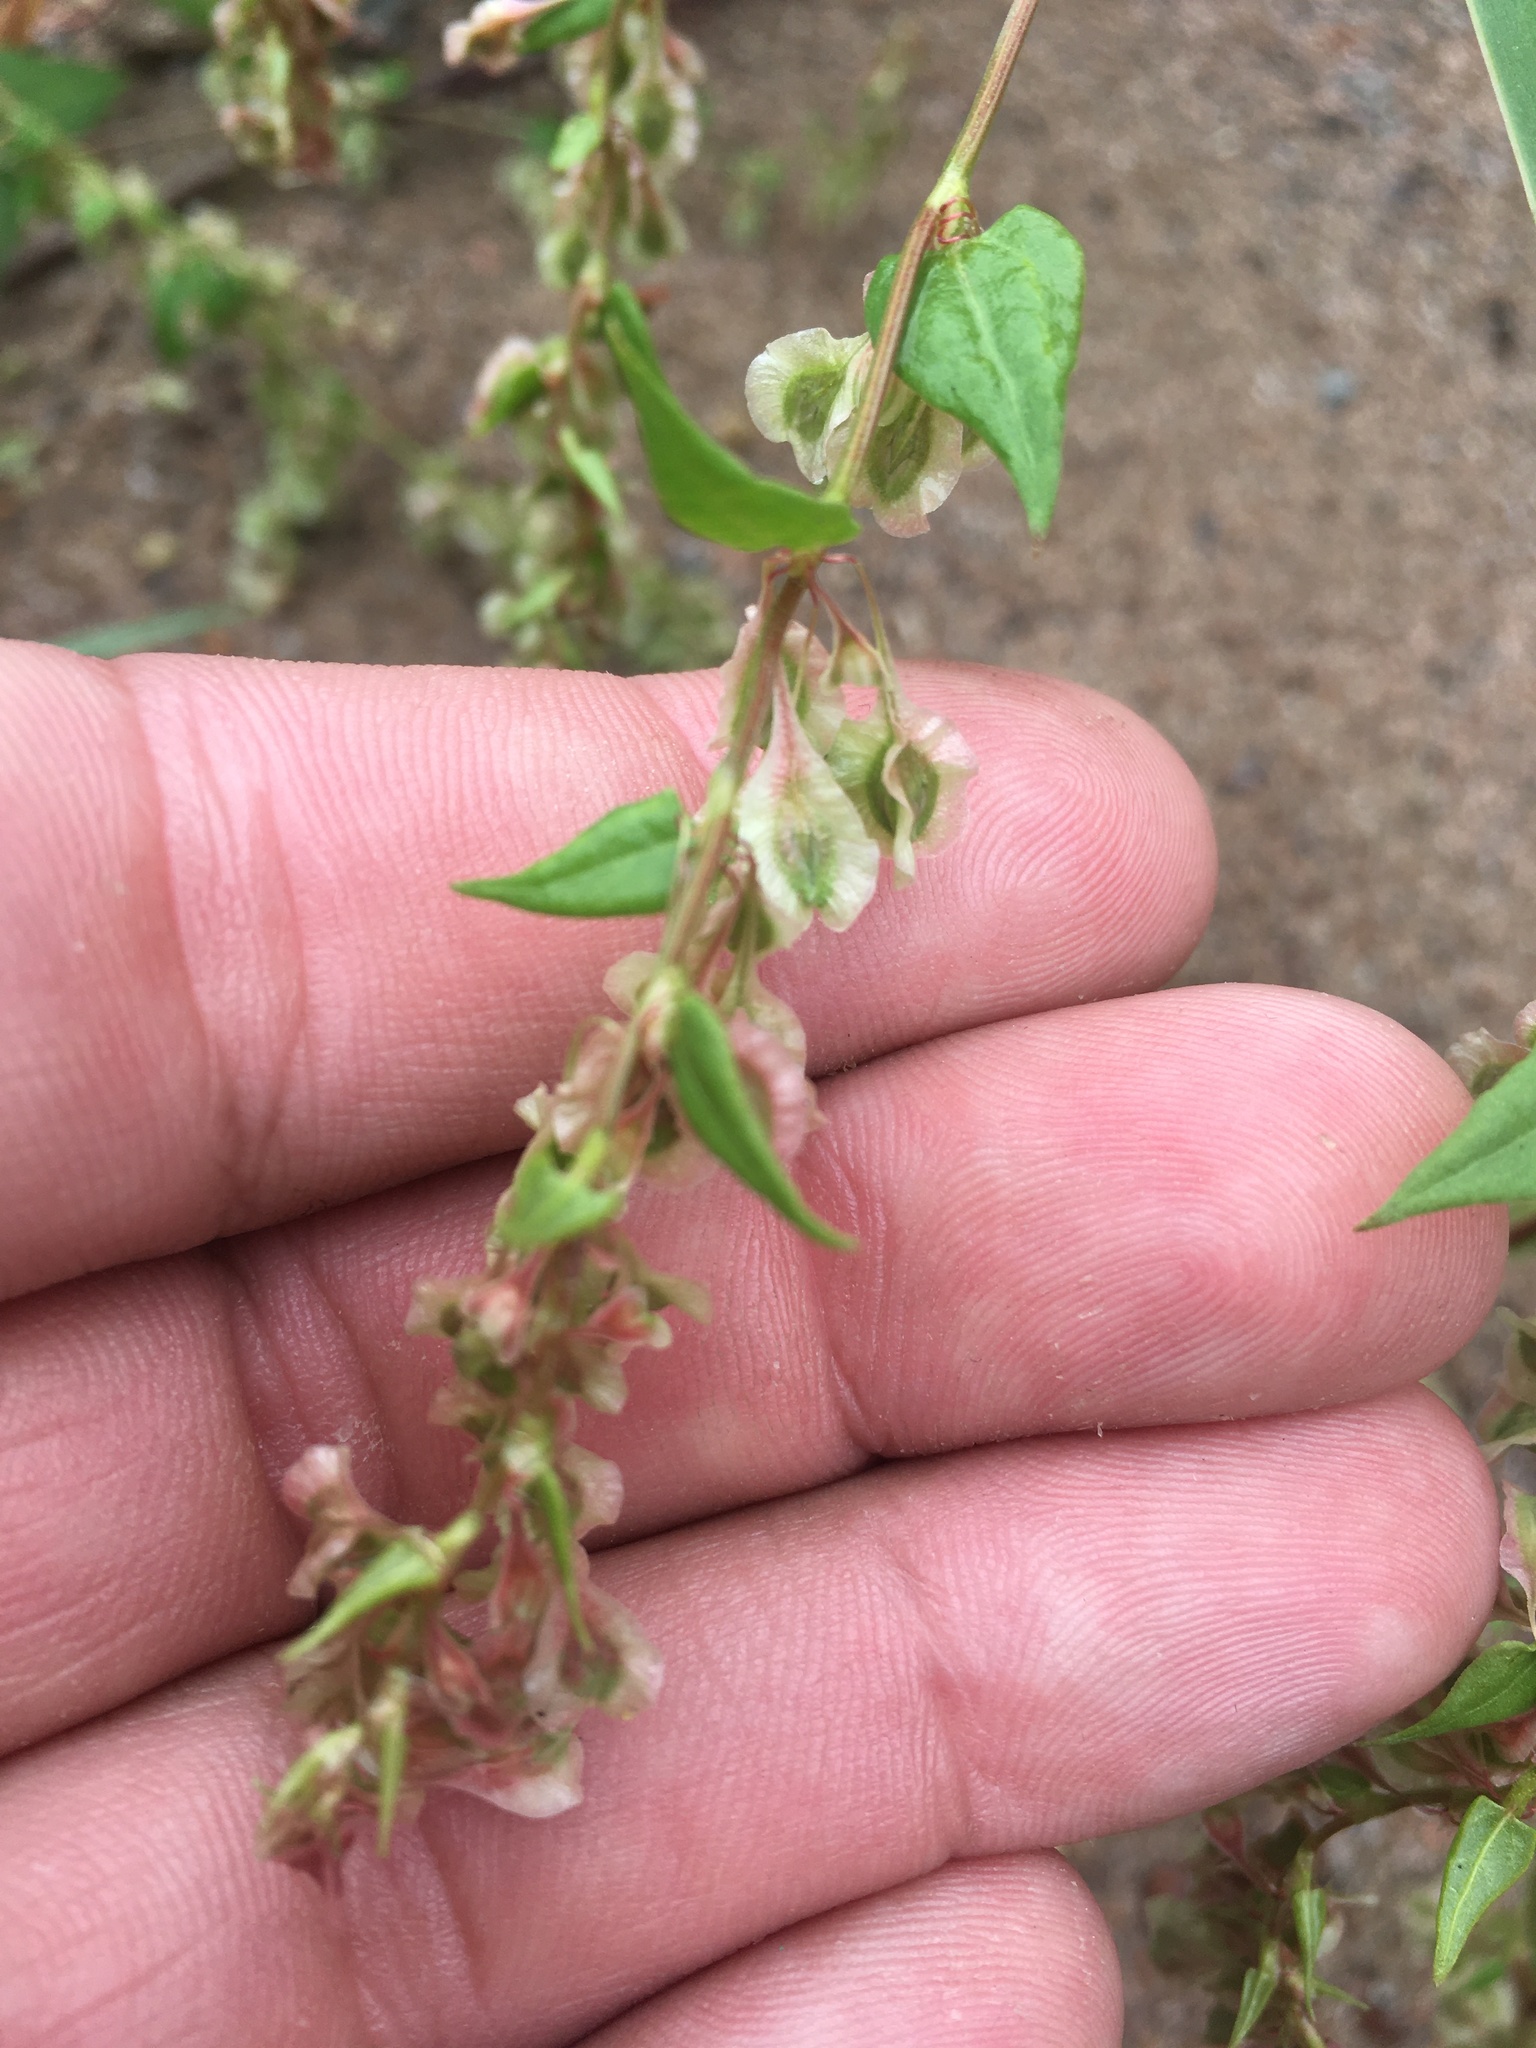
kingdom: Plantae
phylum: Tracheophyta
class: Magnoliopsida
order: Caryophyllales
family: Polygonaceae
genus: Fallopia
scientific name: Fallopia dumetorum
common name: Copse-bindweed
